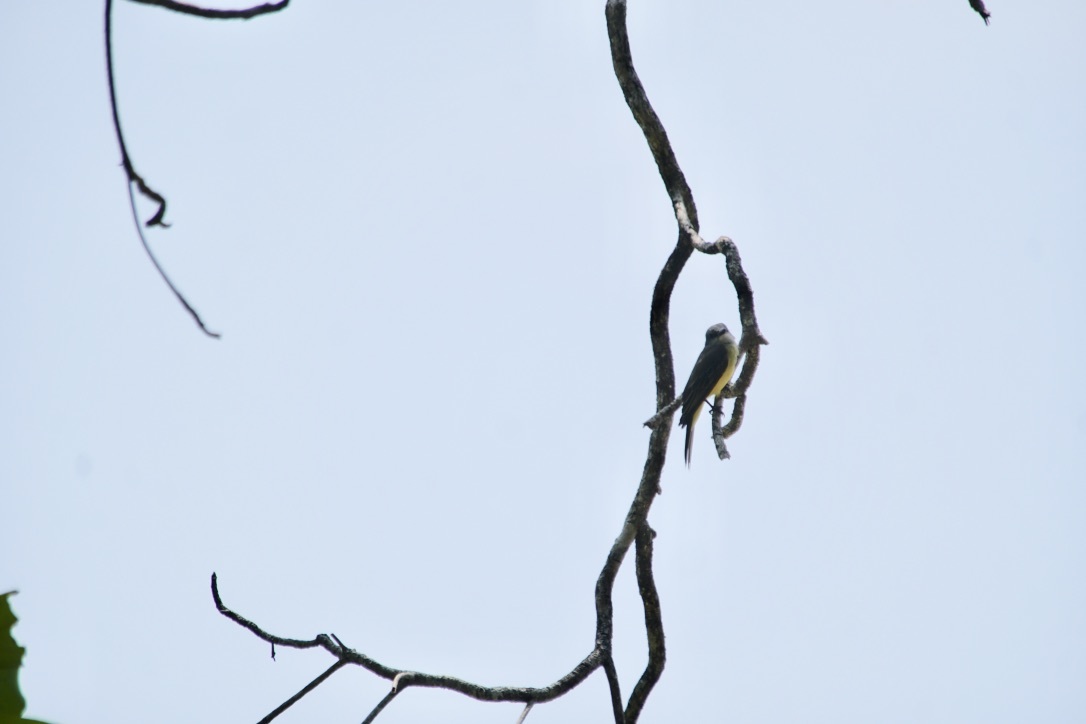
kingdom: Animalia
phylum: Chordata
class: Aves
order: Passeriformes
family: Tyrannidae
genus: Tyrannus
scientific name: Tyrannus melancholicus
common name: Tropical kingbird
